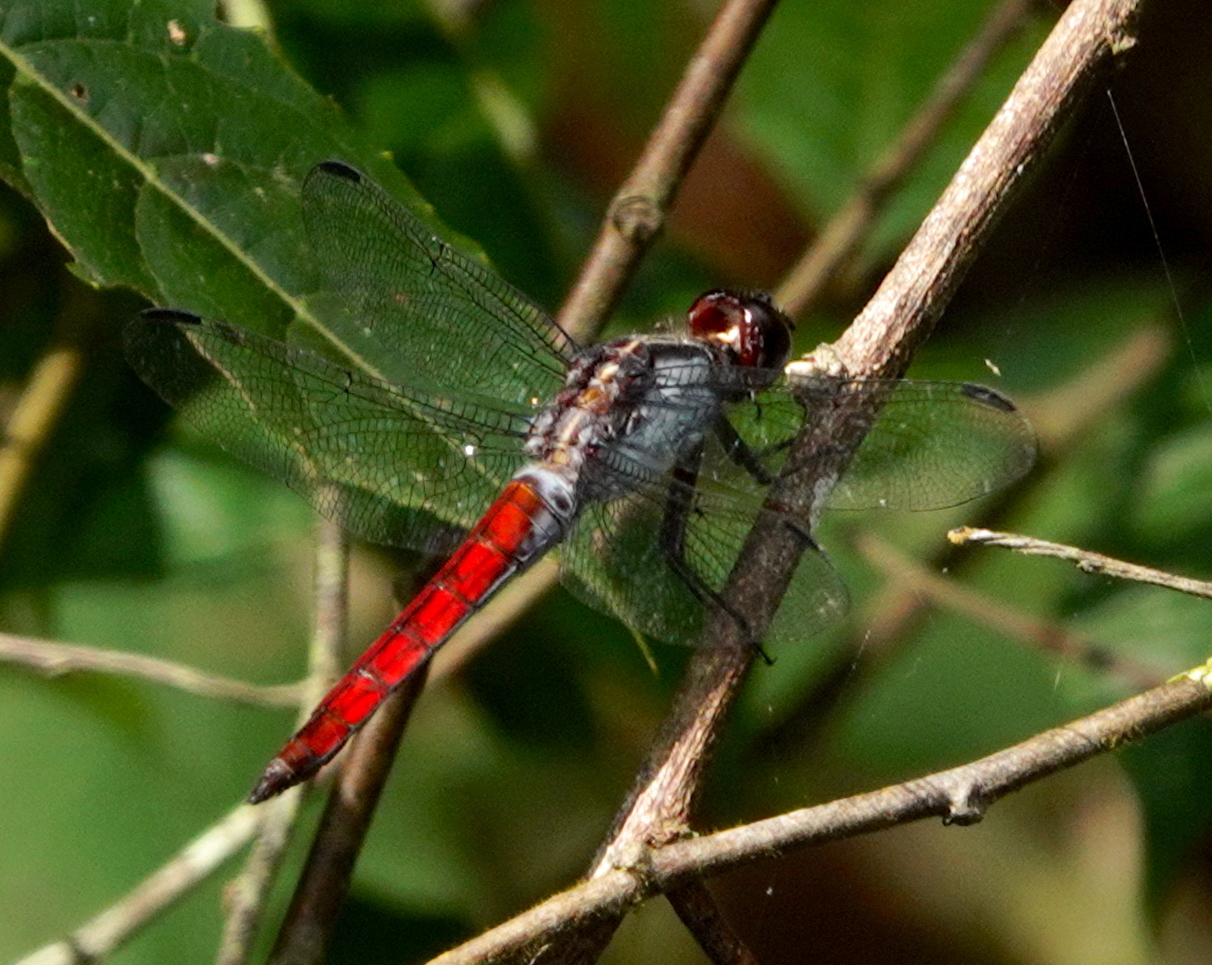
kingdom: Animalia
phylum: Arthropoda
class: Insecta
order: Odonata
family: Libellulidae
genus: Libellula
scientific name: Libellula herculea
